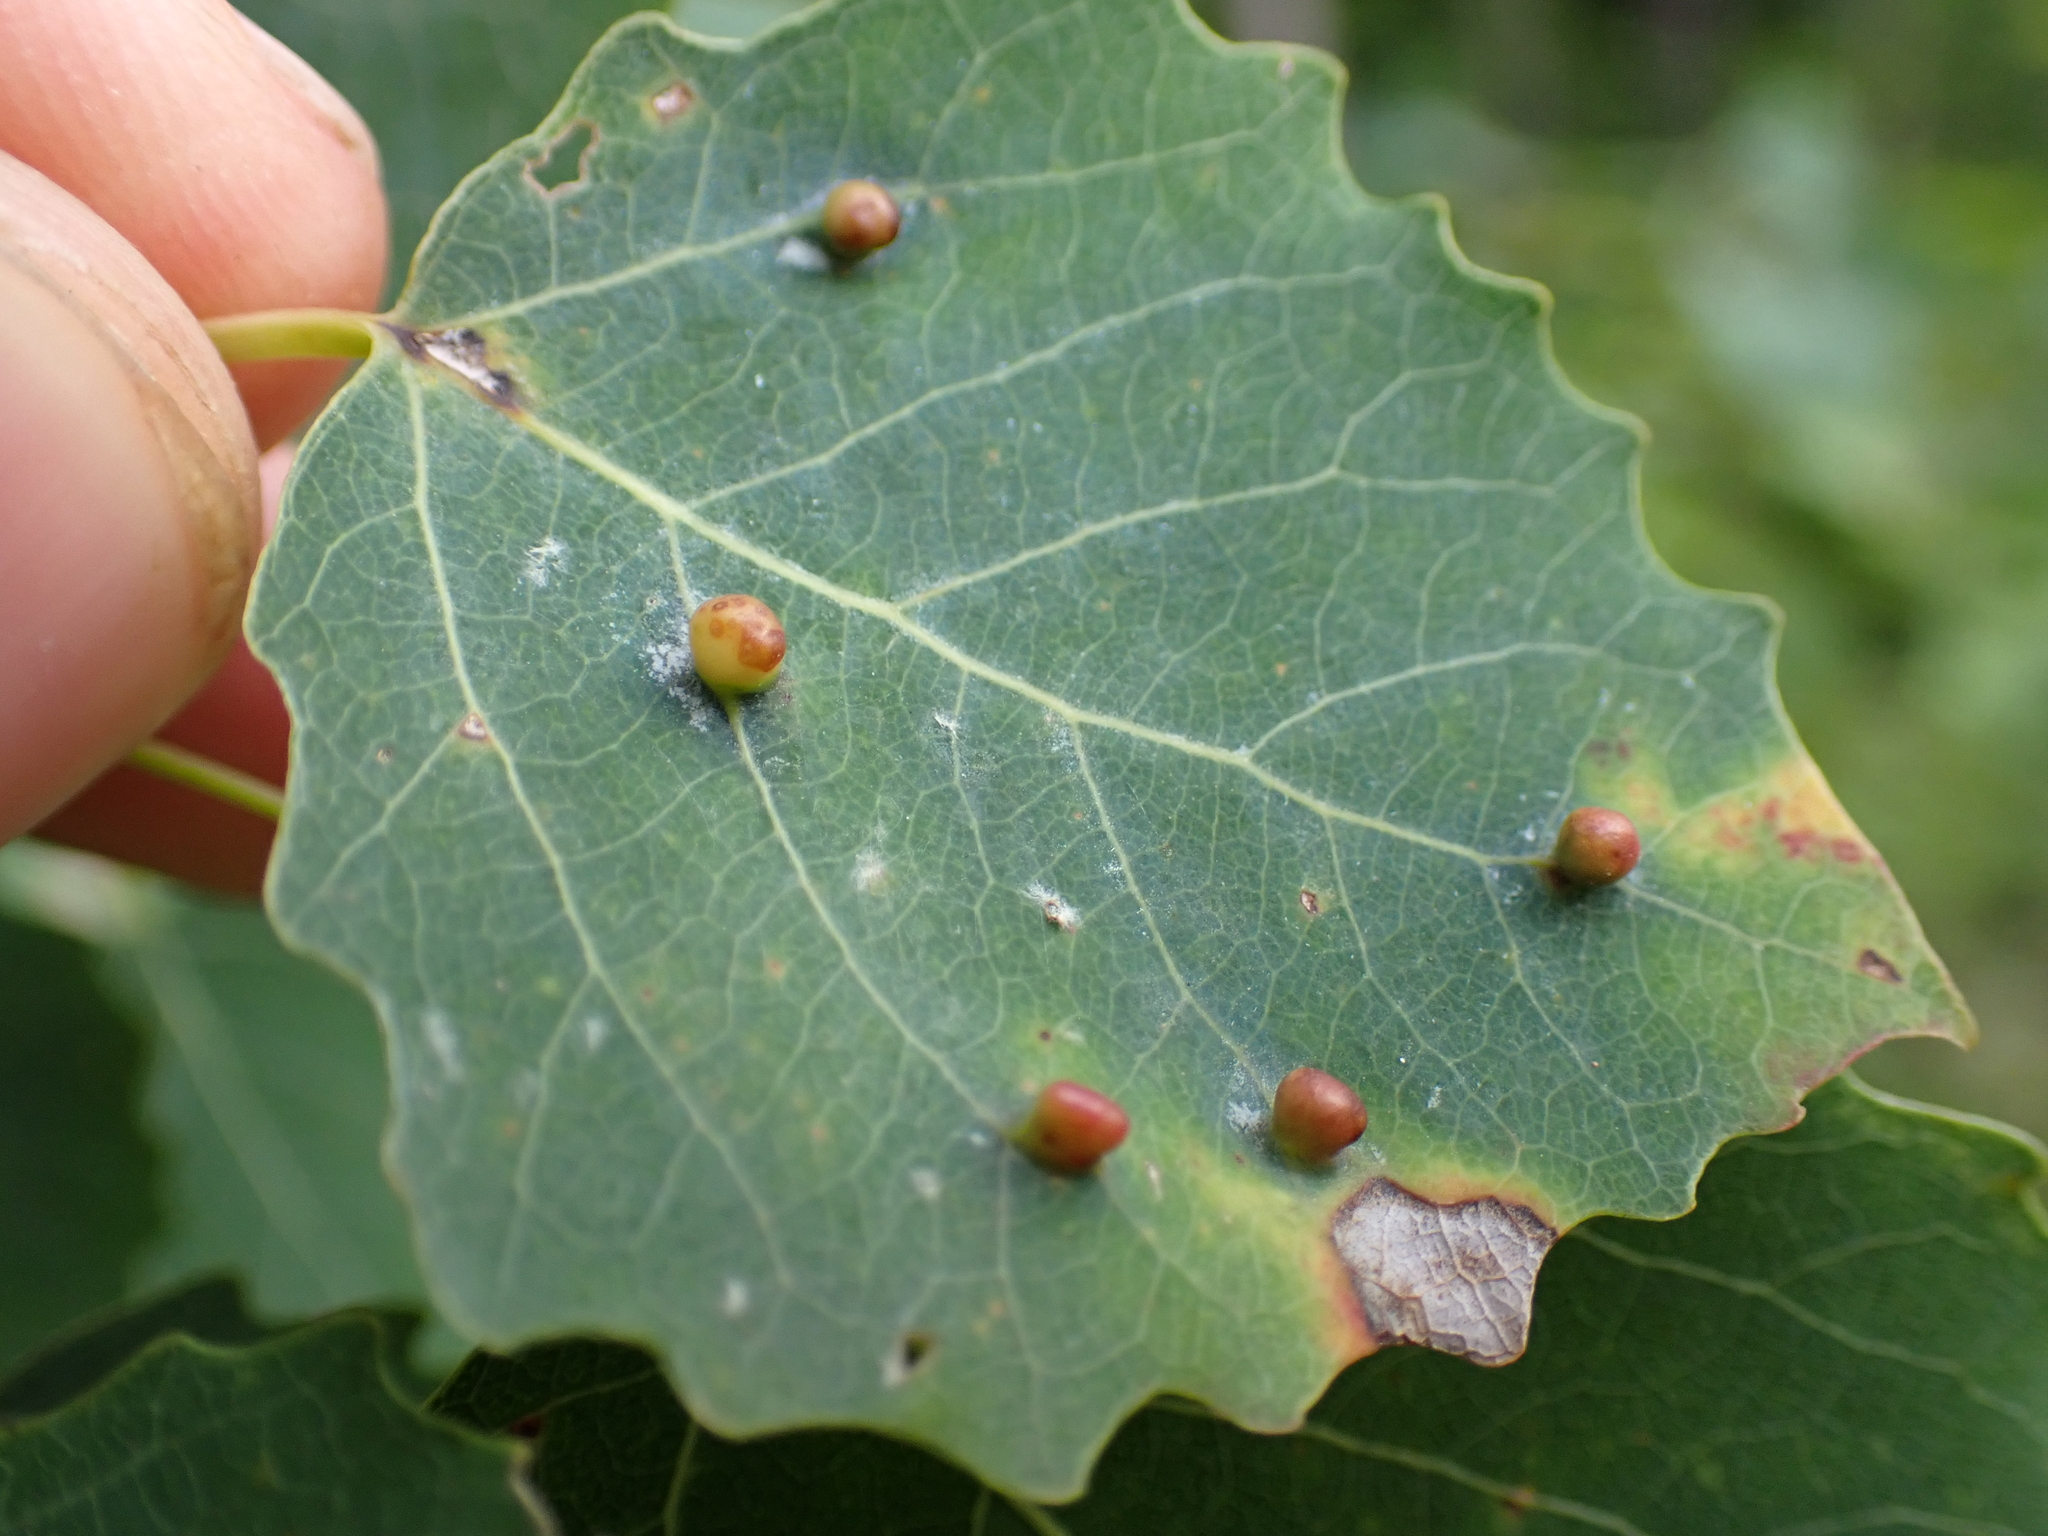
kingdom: Animalia
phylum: Arthropoda
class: Insecta
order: Diptera
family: Cecidomyiidae
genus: Harmandiola
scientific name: Harmandiola globuli
